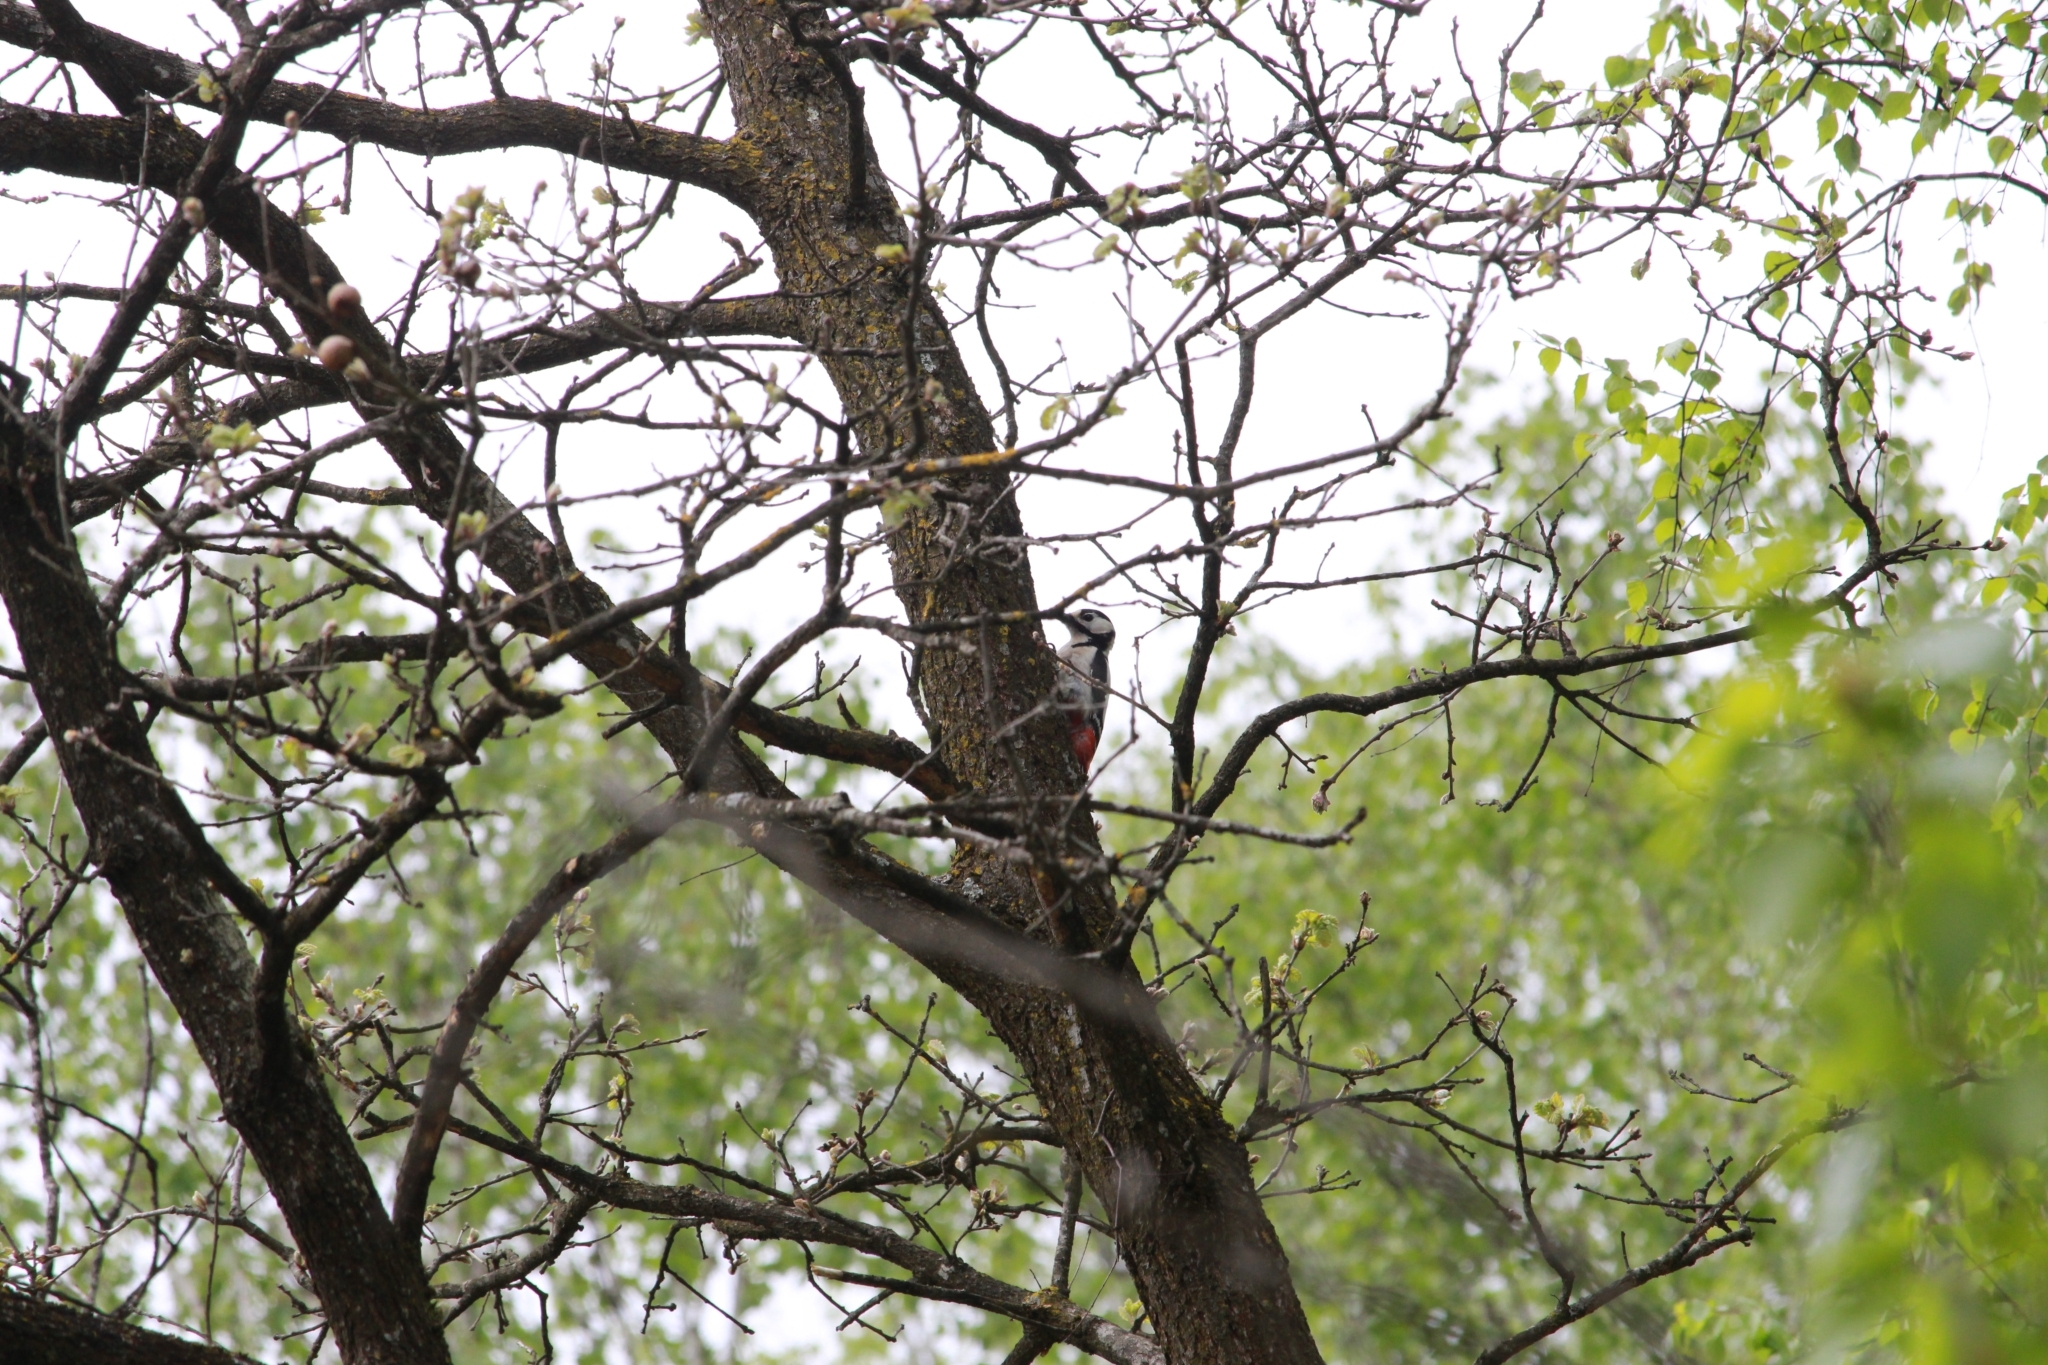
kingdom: Animalia
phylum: Chordata
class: Aves
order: Piciformes
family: Picidae
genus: Dendrocopos
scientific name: Dendrocopos major
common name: Great spotted woodpecker
